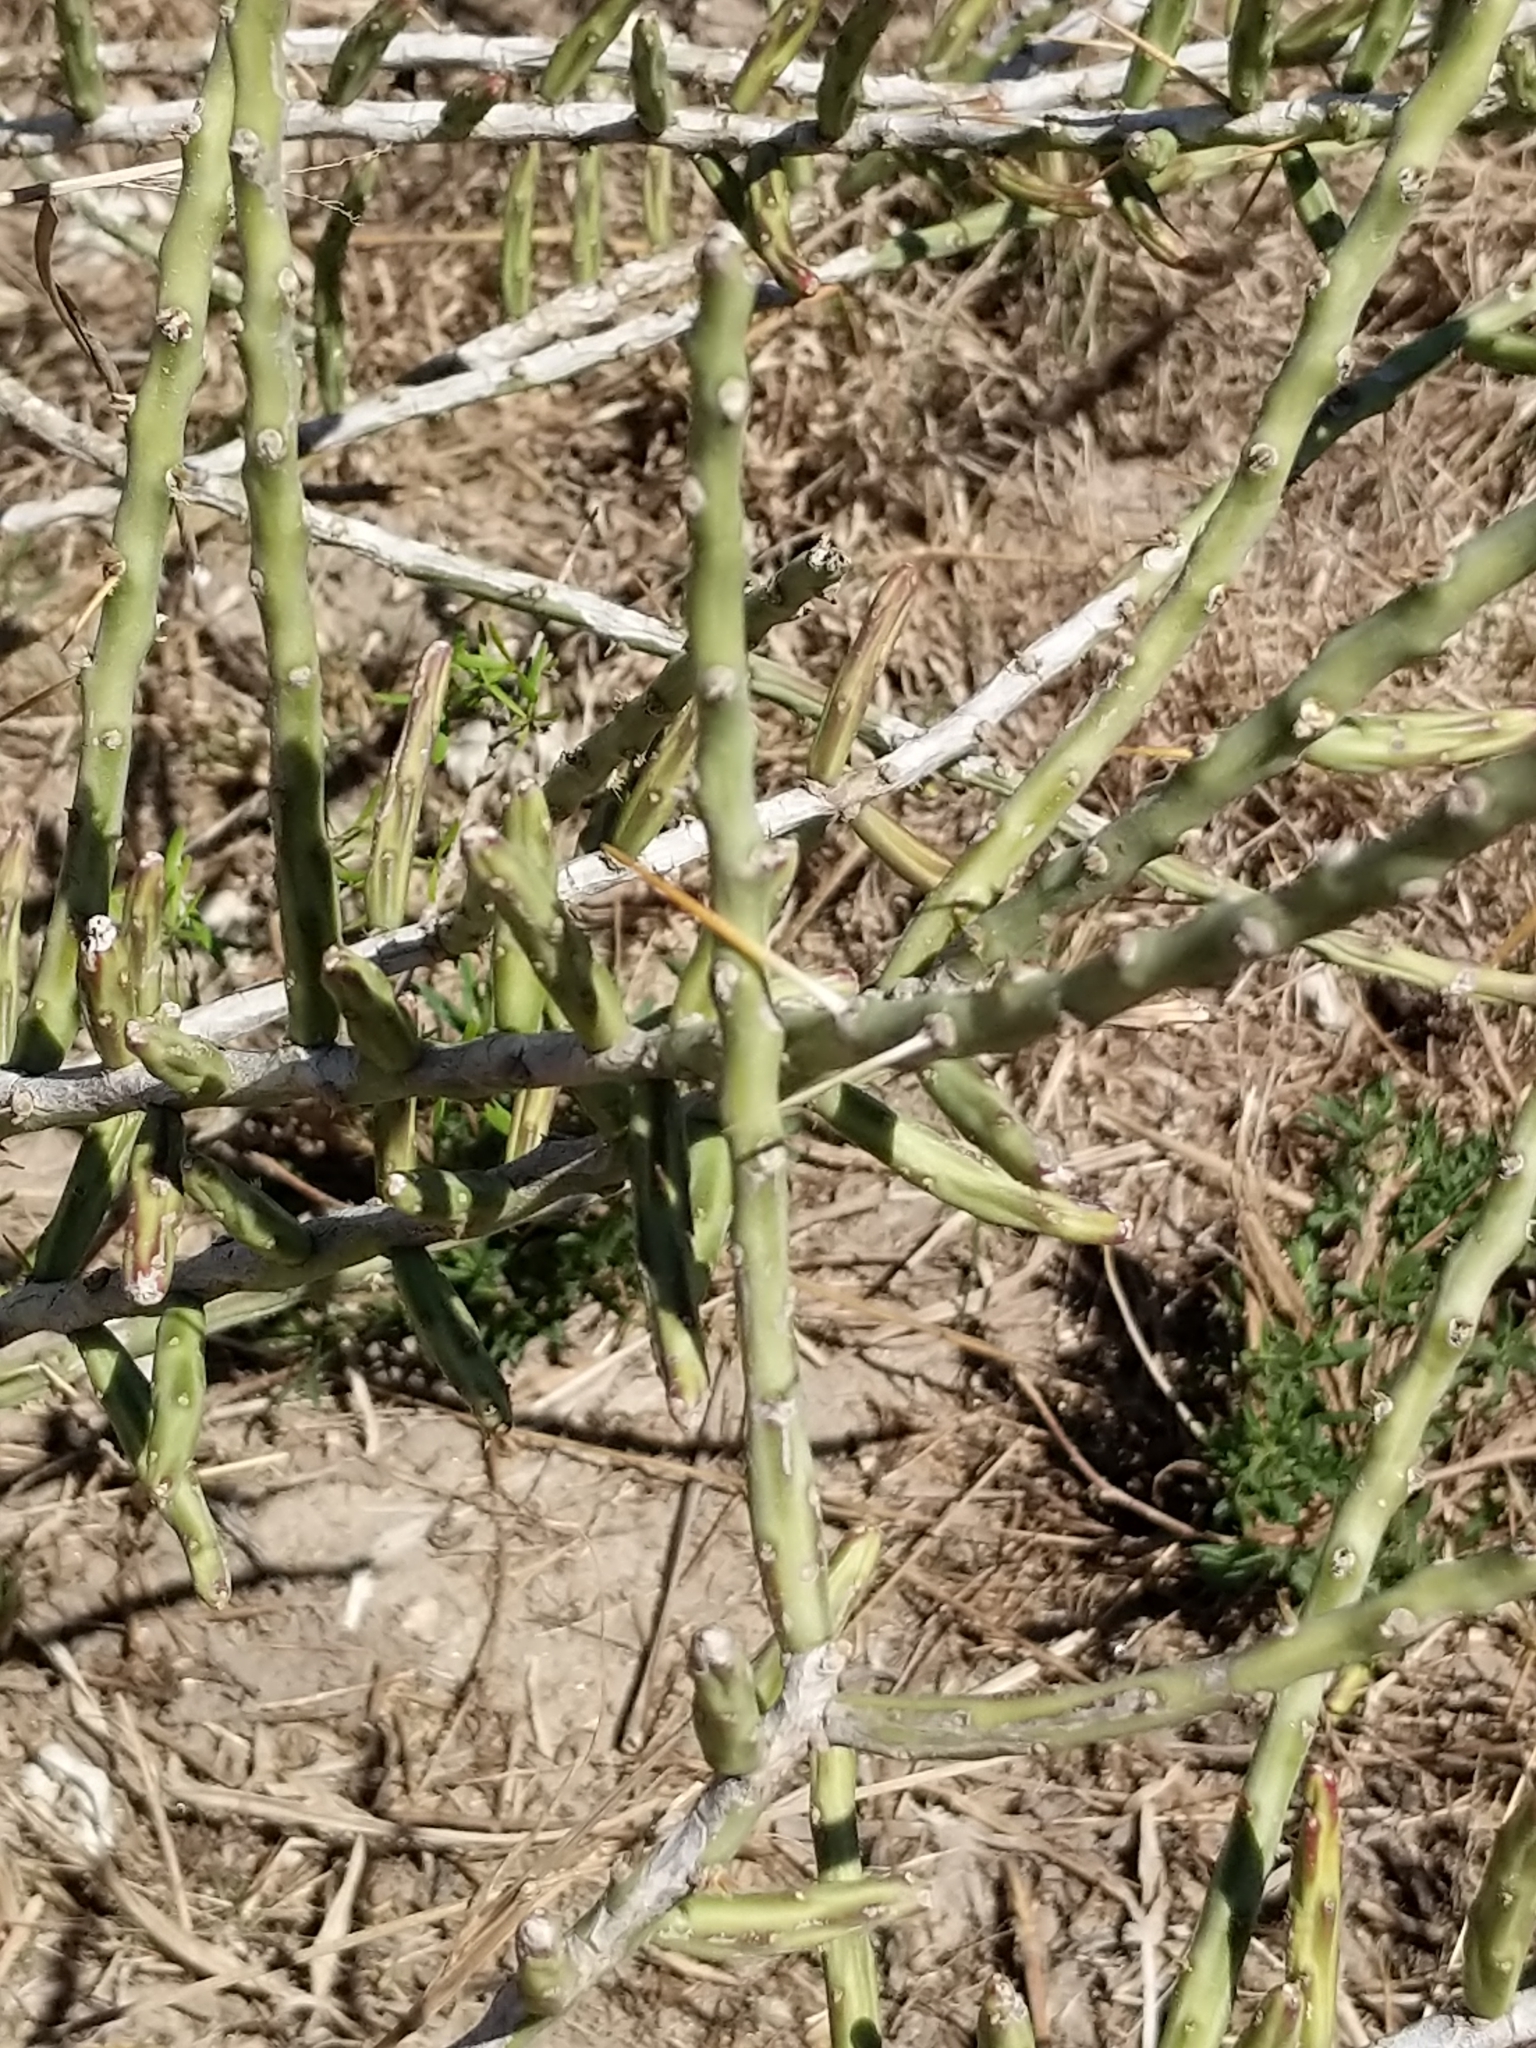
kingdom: Plantae
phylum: Tracheophyta
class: Magnoliopsida
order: Caryophyllales
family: Cactaceae
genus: Cylindropuntia
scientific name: Cylindropuntia leptocaulis
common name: Christmas cactus
